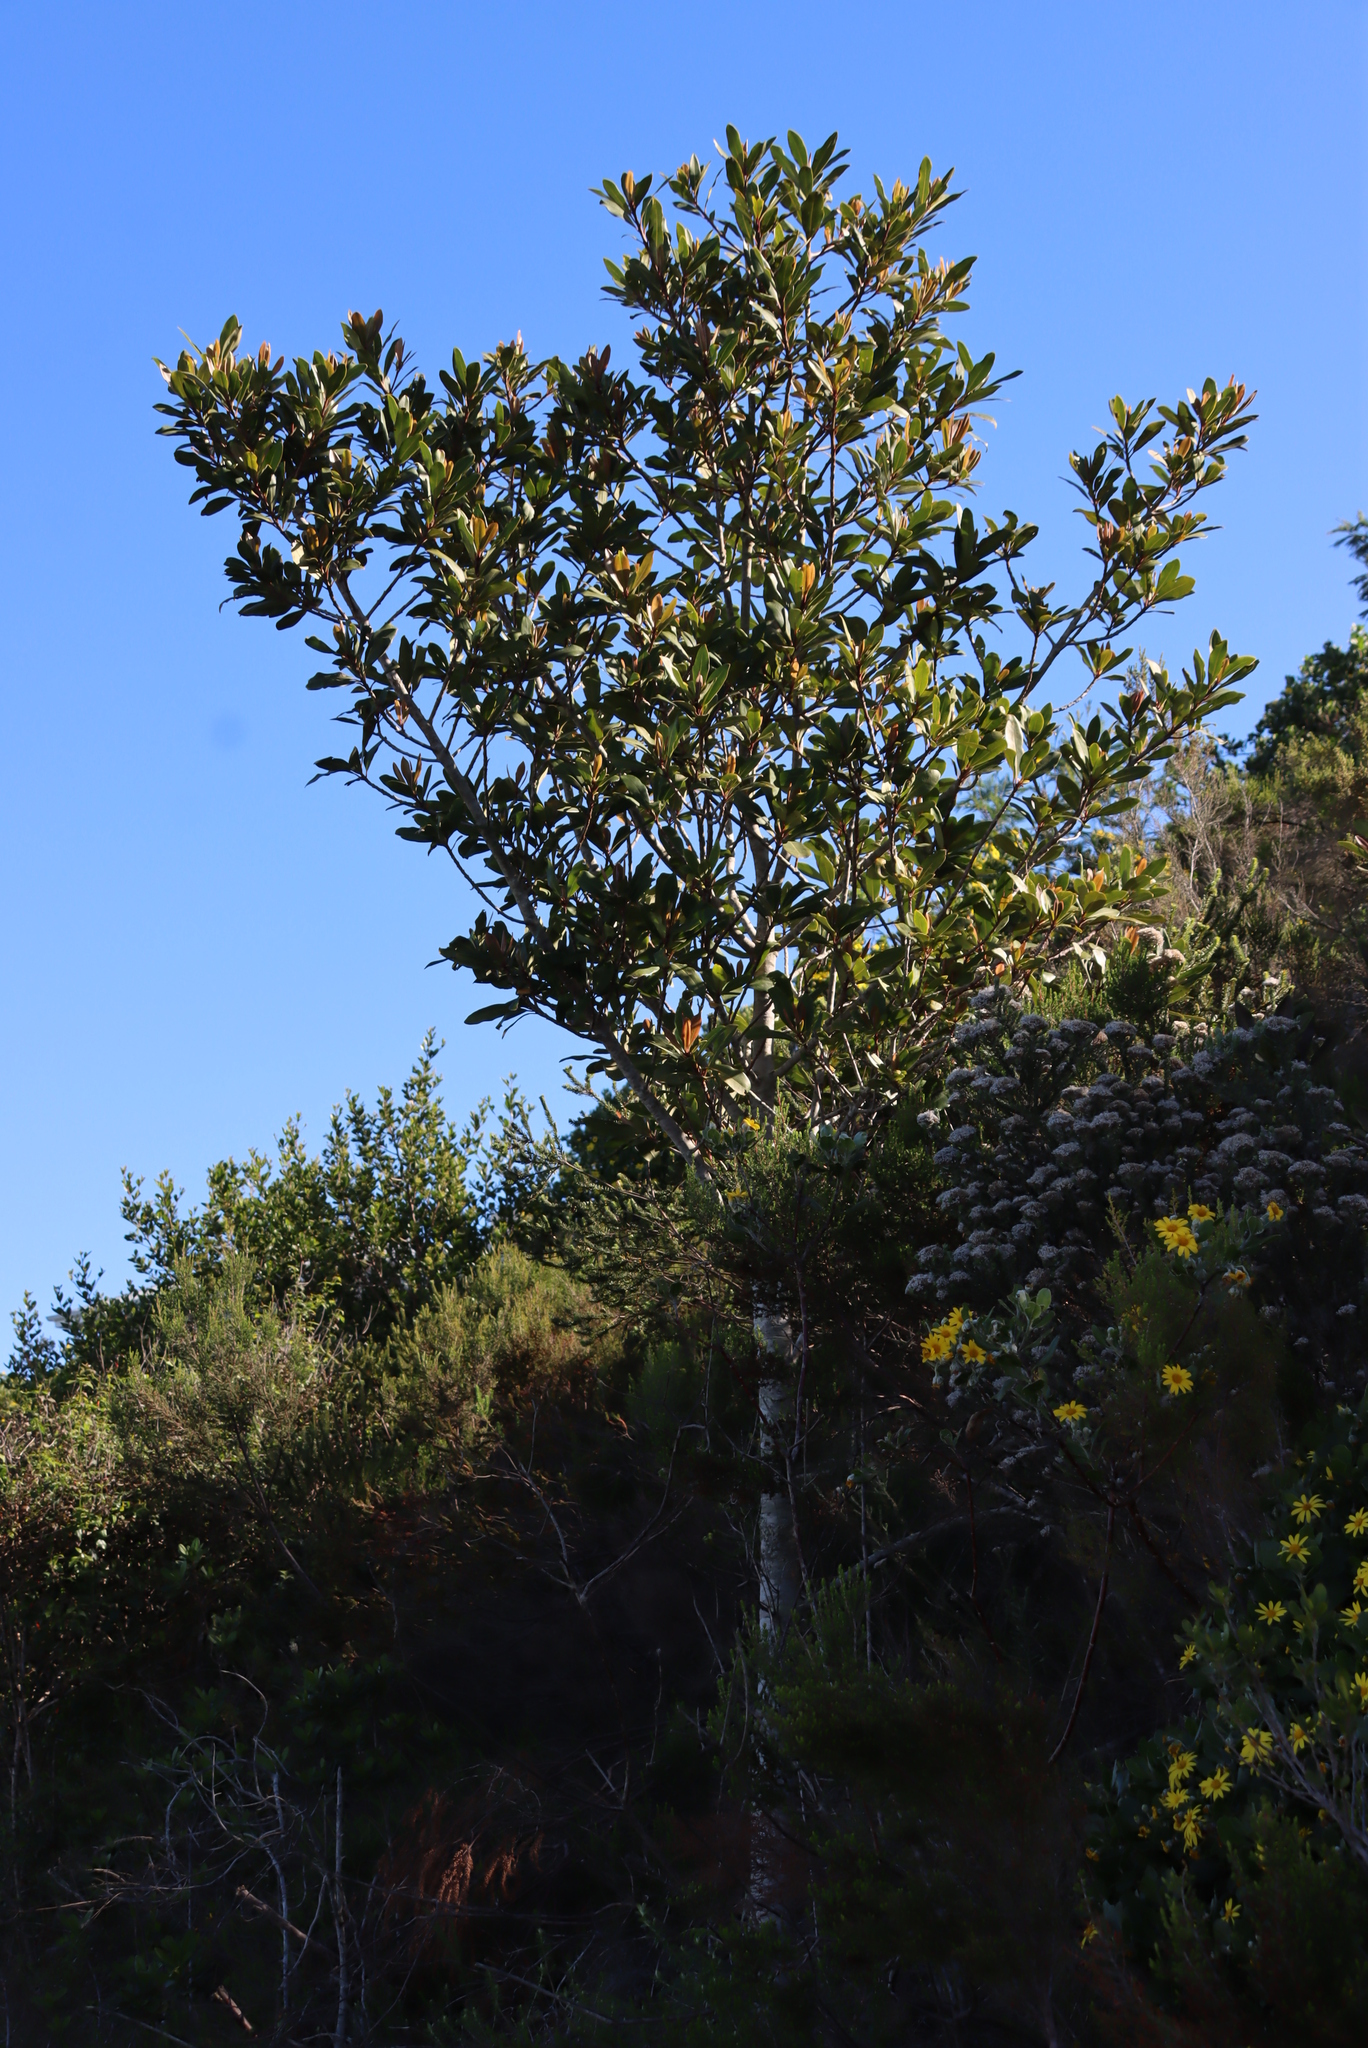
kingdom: Plantae
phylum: Tracheophyta
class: Magnoliopsida
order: Ericales
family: Primulaceae
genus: Myrsine
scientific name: Myrsine melanophloeos
